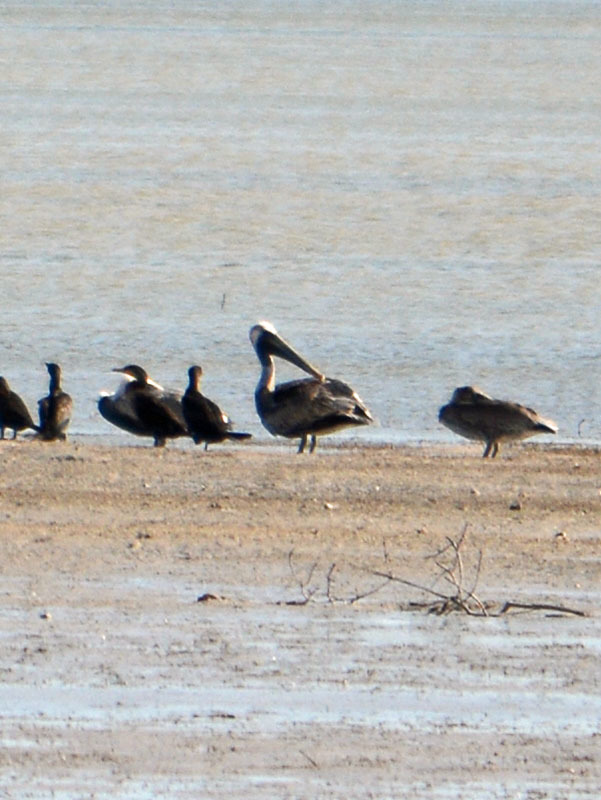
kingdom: Animalia
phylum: Chordata
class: Aves
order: Pelecaniformes
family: Pelecanidae
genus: Pelecanus
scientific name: Pelecanus occidentalis
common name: Brown pelican
